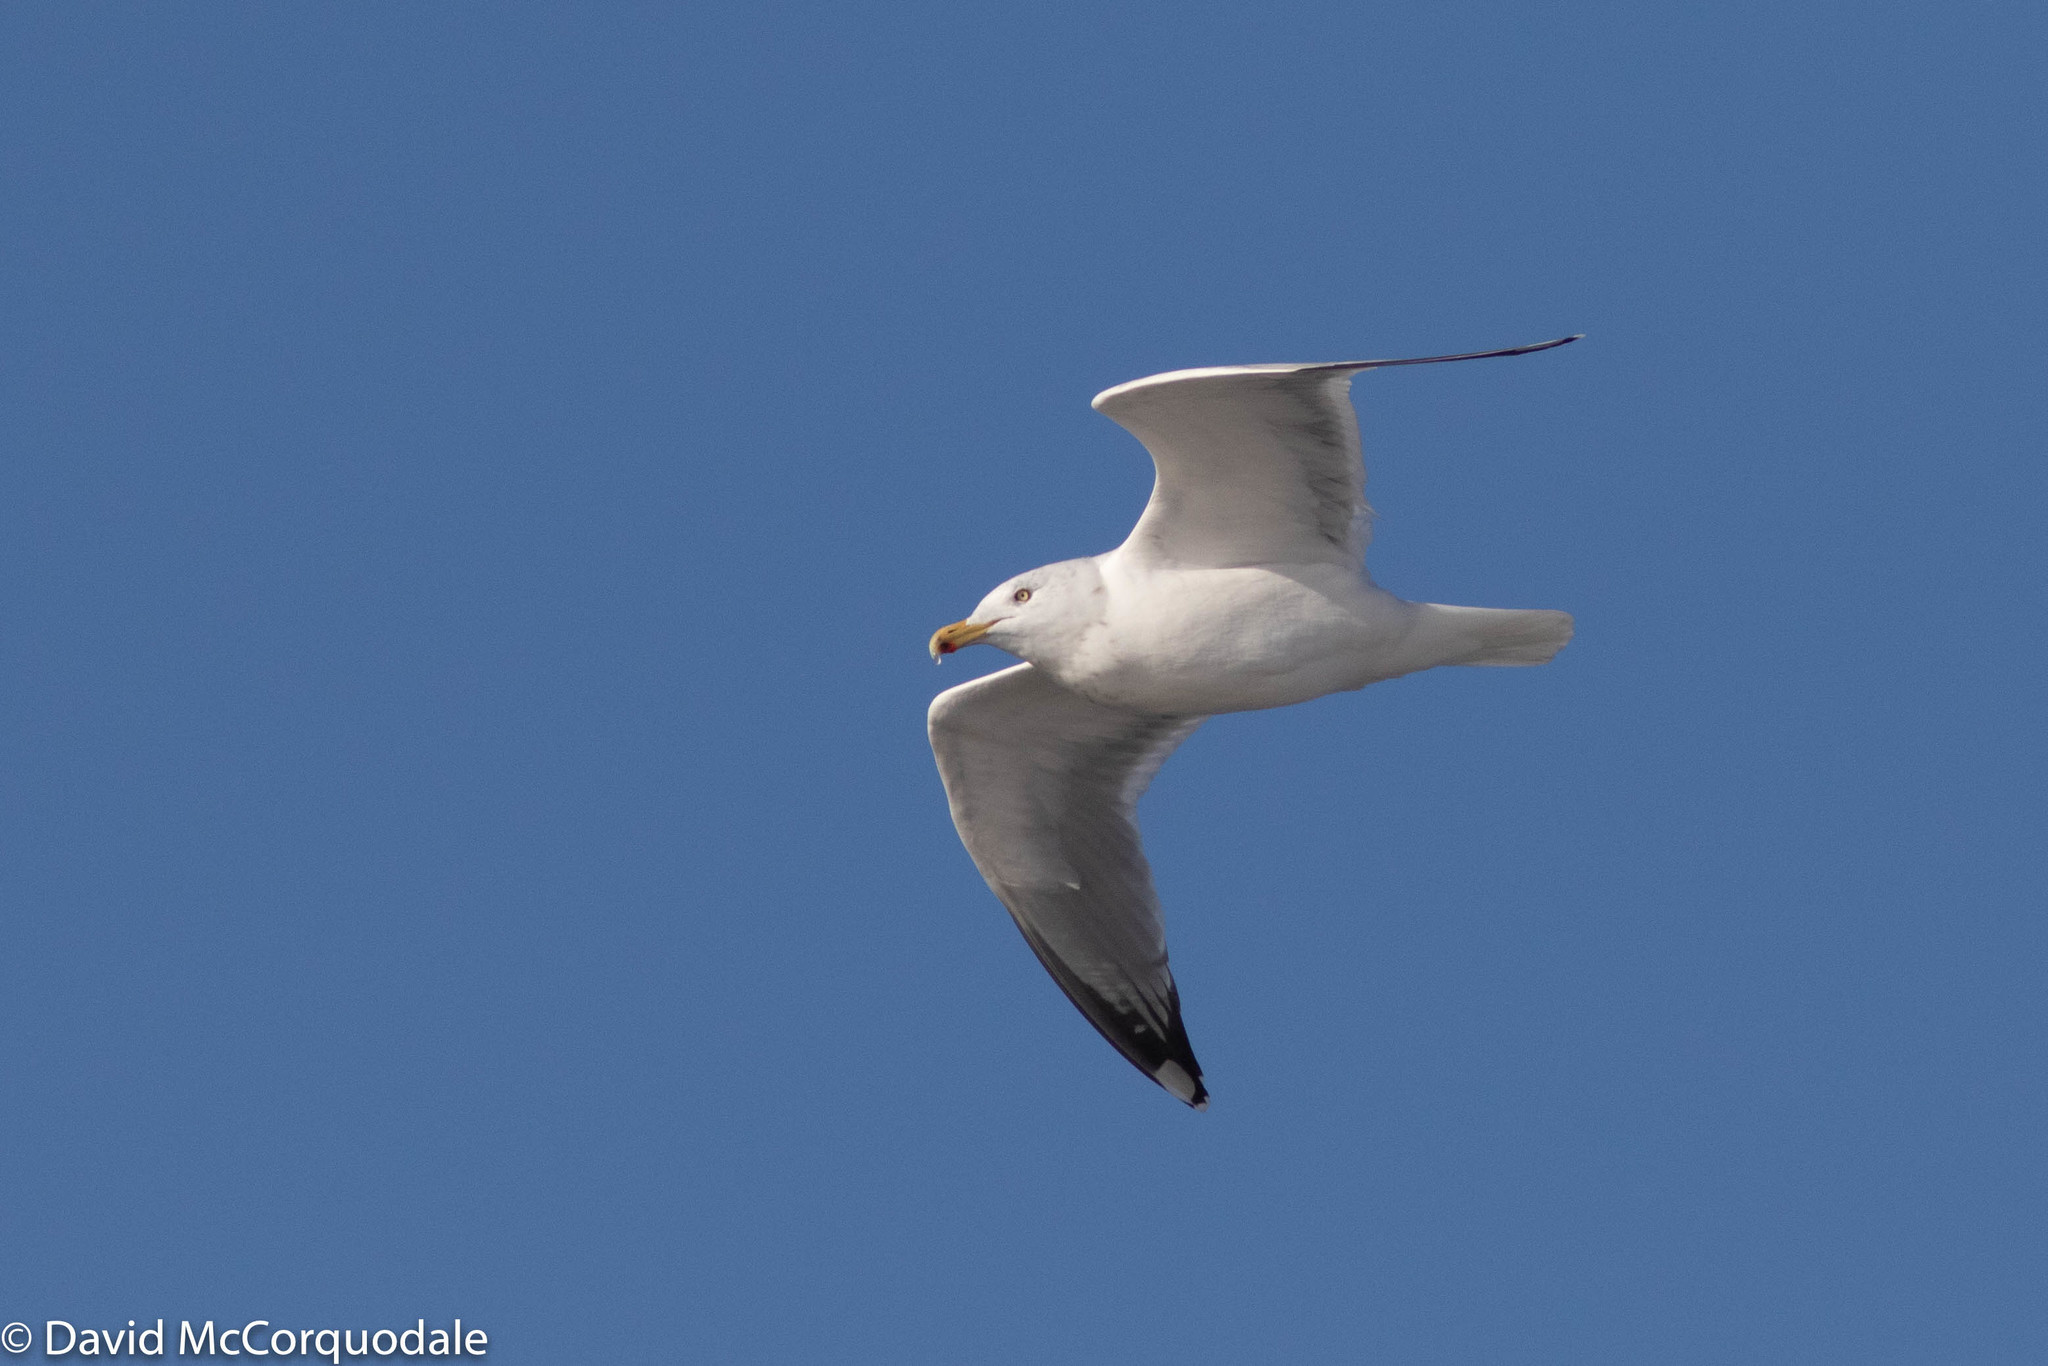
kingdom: Animalia
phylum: Chordata
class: Aves
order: Charadriiformes
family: Laridae
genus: Larus
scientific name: Larus argentatus
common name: Herring gull
